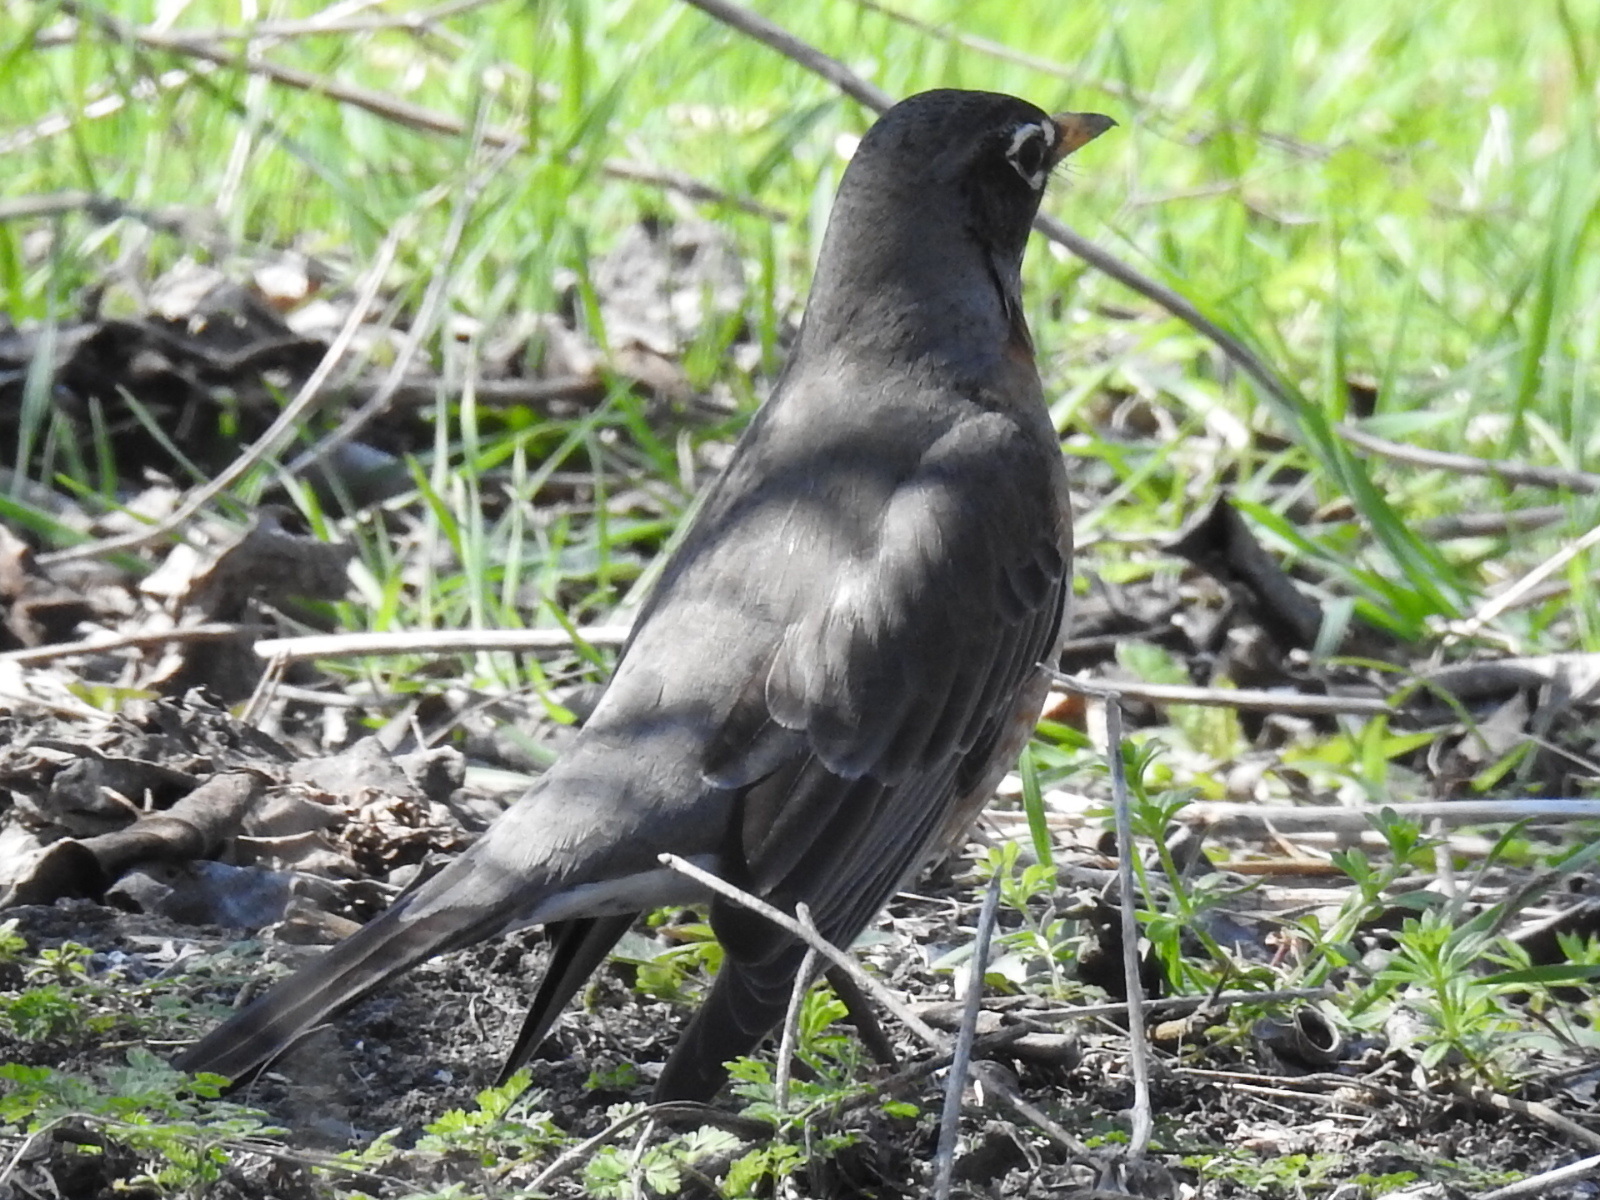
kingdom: Animalia
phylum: Chordata
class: Aves
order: Passeriformes
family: Turdidae
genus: Turdus
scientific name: Turdus migratorius
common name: American robin
